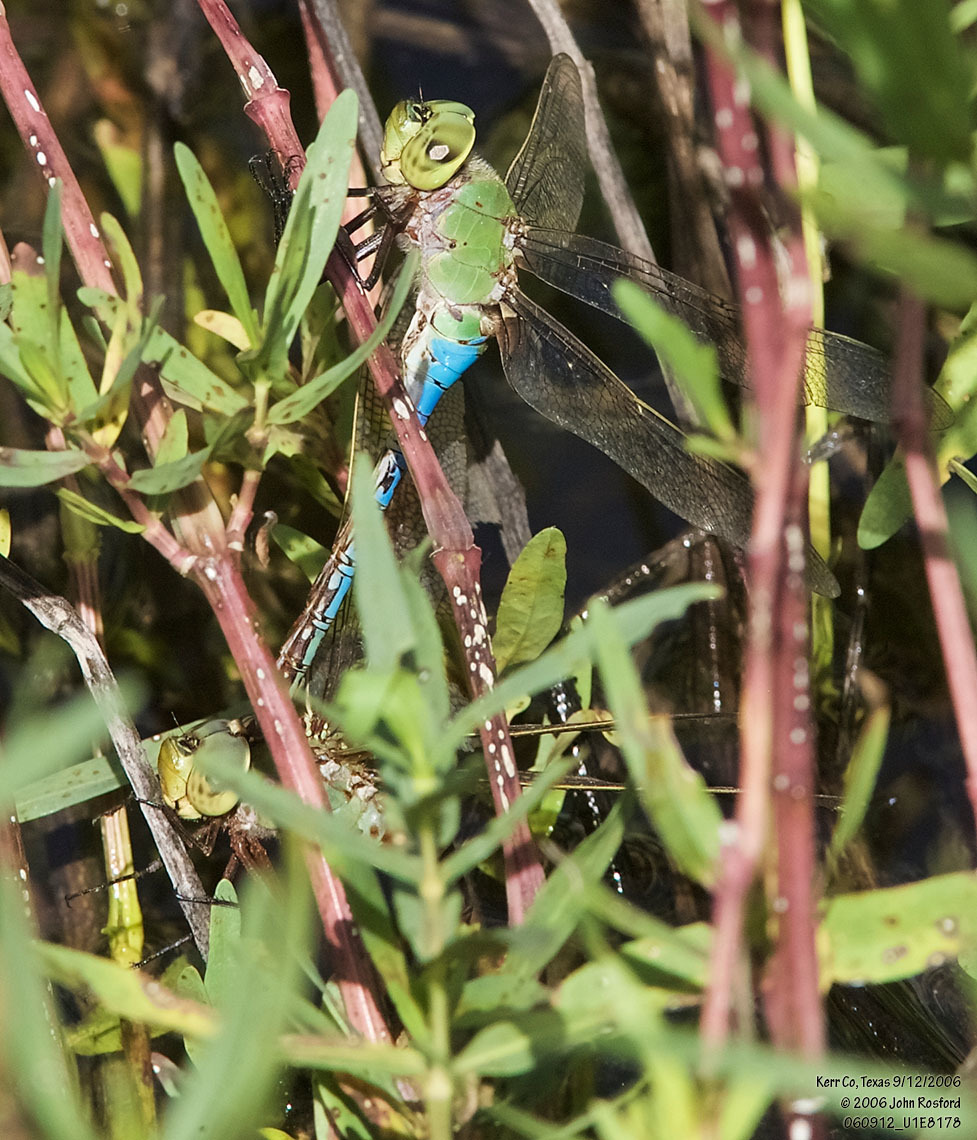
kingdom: Animalia
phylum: Arthropoda
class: Insecta
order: Odonata
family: Aeshnidae
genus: Anax
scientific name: Anax junius
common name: Common green darner
